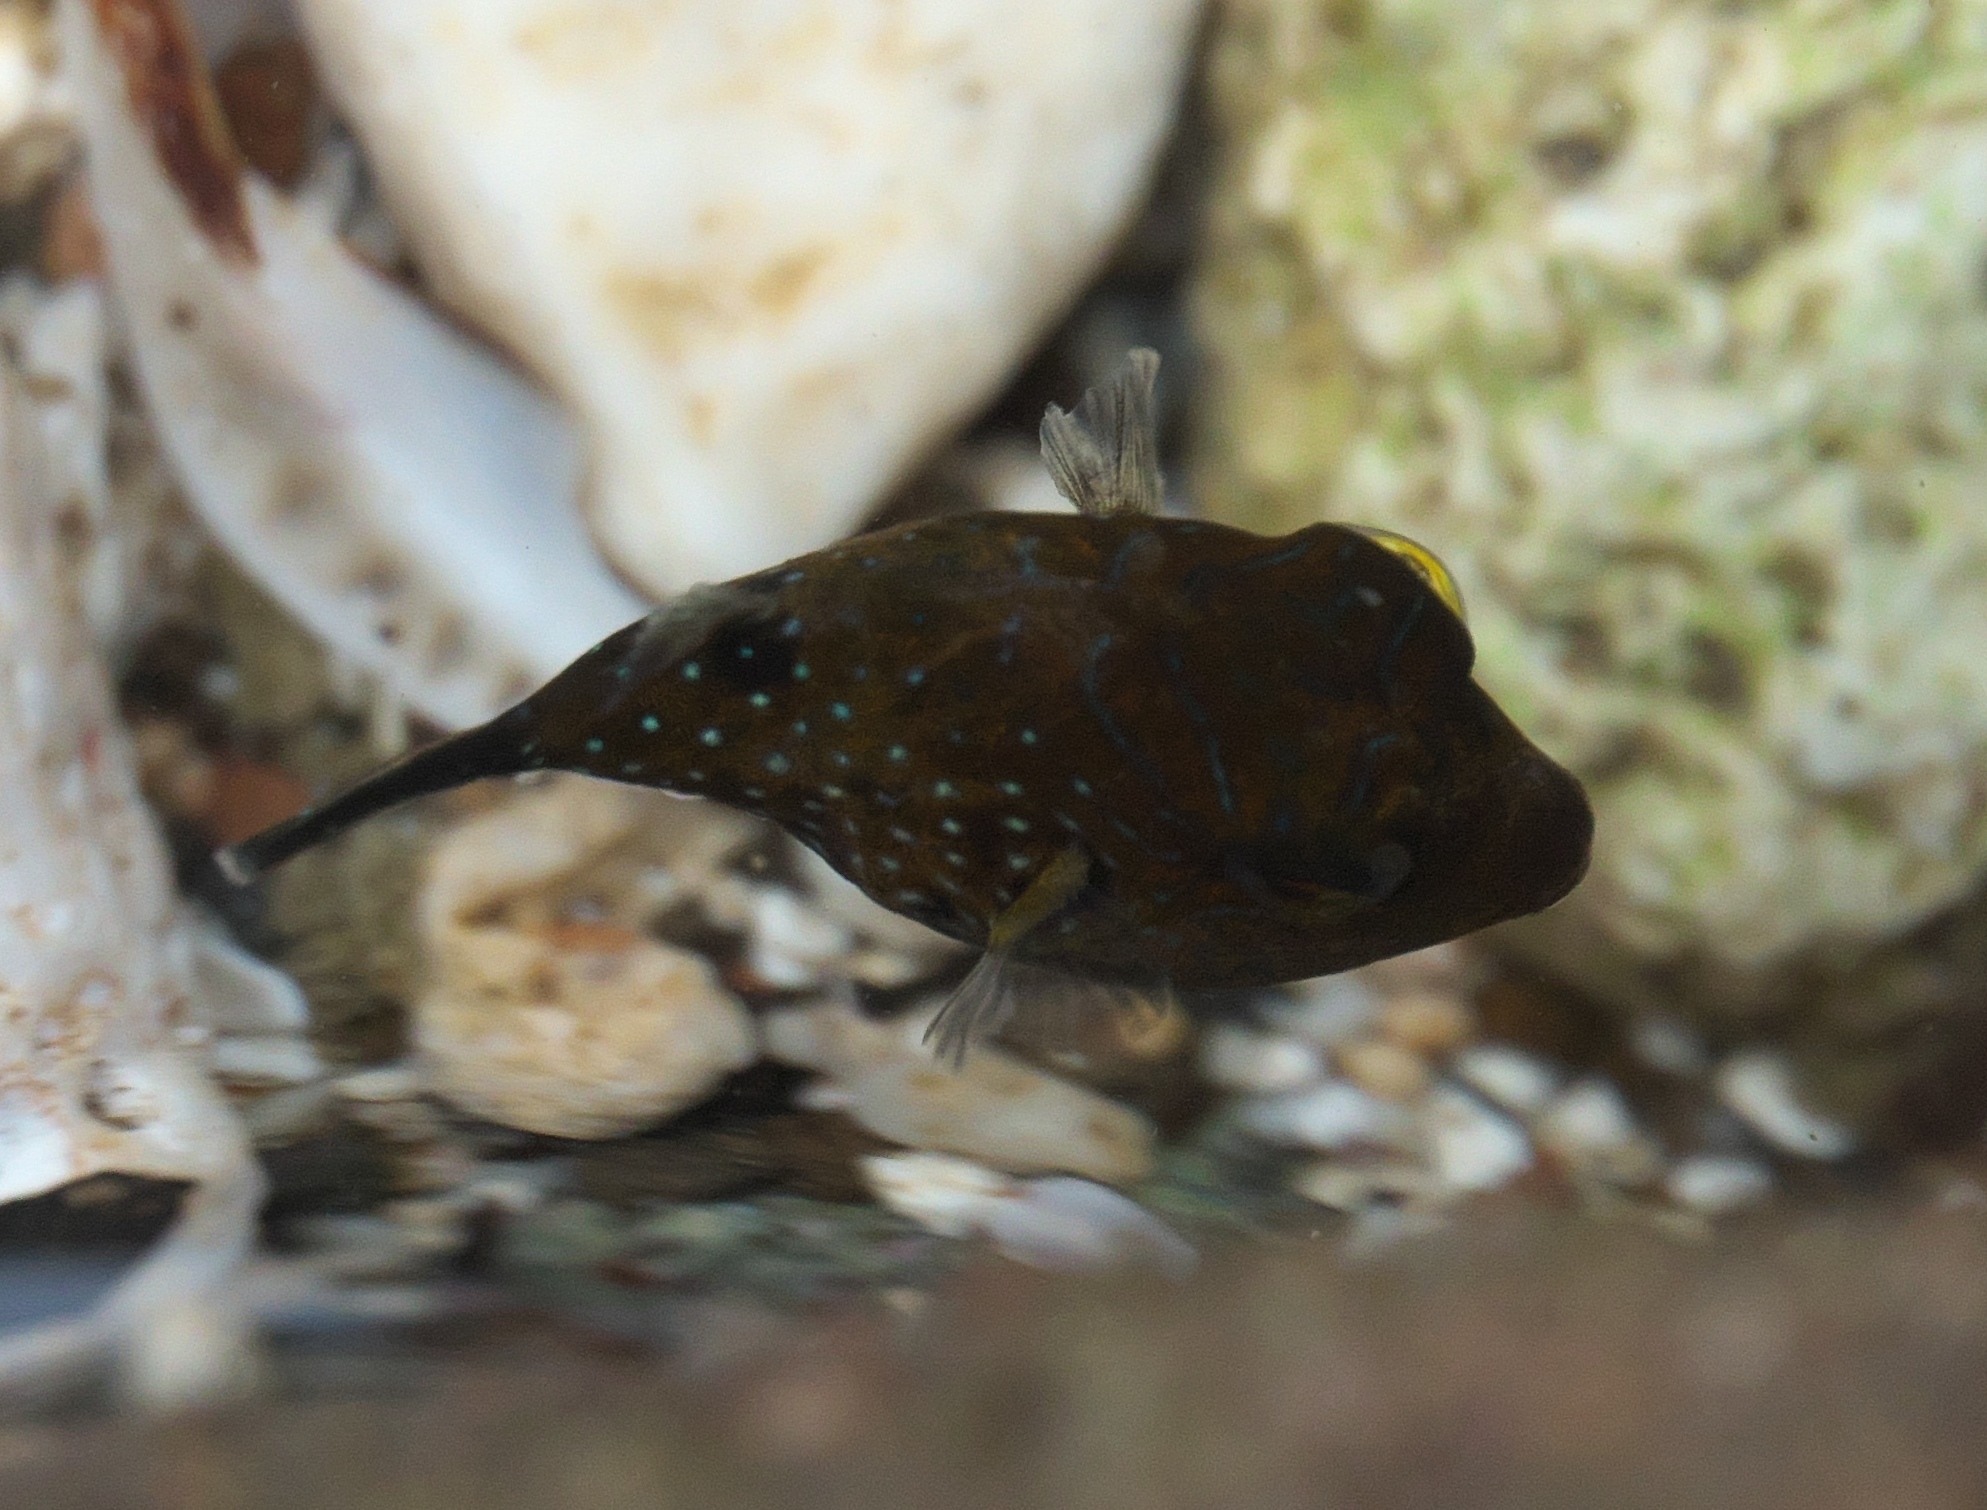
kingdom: Animalia
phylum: Chordata
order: Tetraodontiformes
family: Tetraodontidae
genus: Canthigaster
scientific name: Canthigaster amboinensis
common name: Ambon pufferfish
